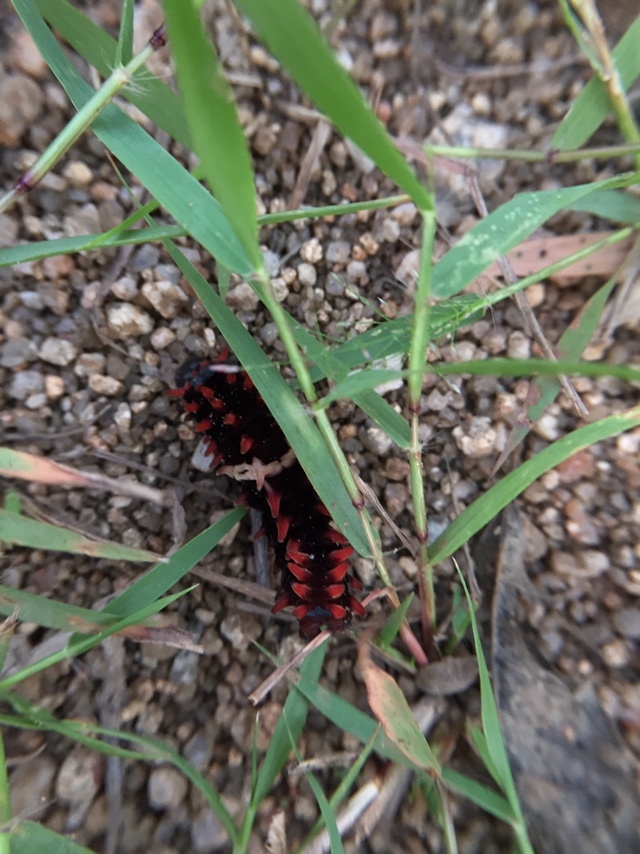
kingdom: Animalia
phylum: Arthropoda
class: Insecta
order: Lepidoptera
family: Papilionidae
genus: Pachliopta
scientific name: Pachliopta aristolochiae
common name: Common rose
